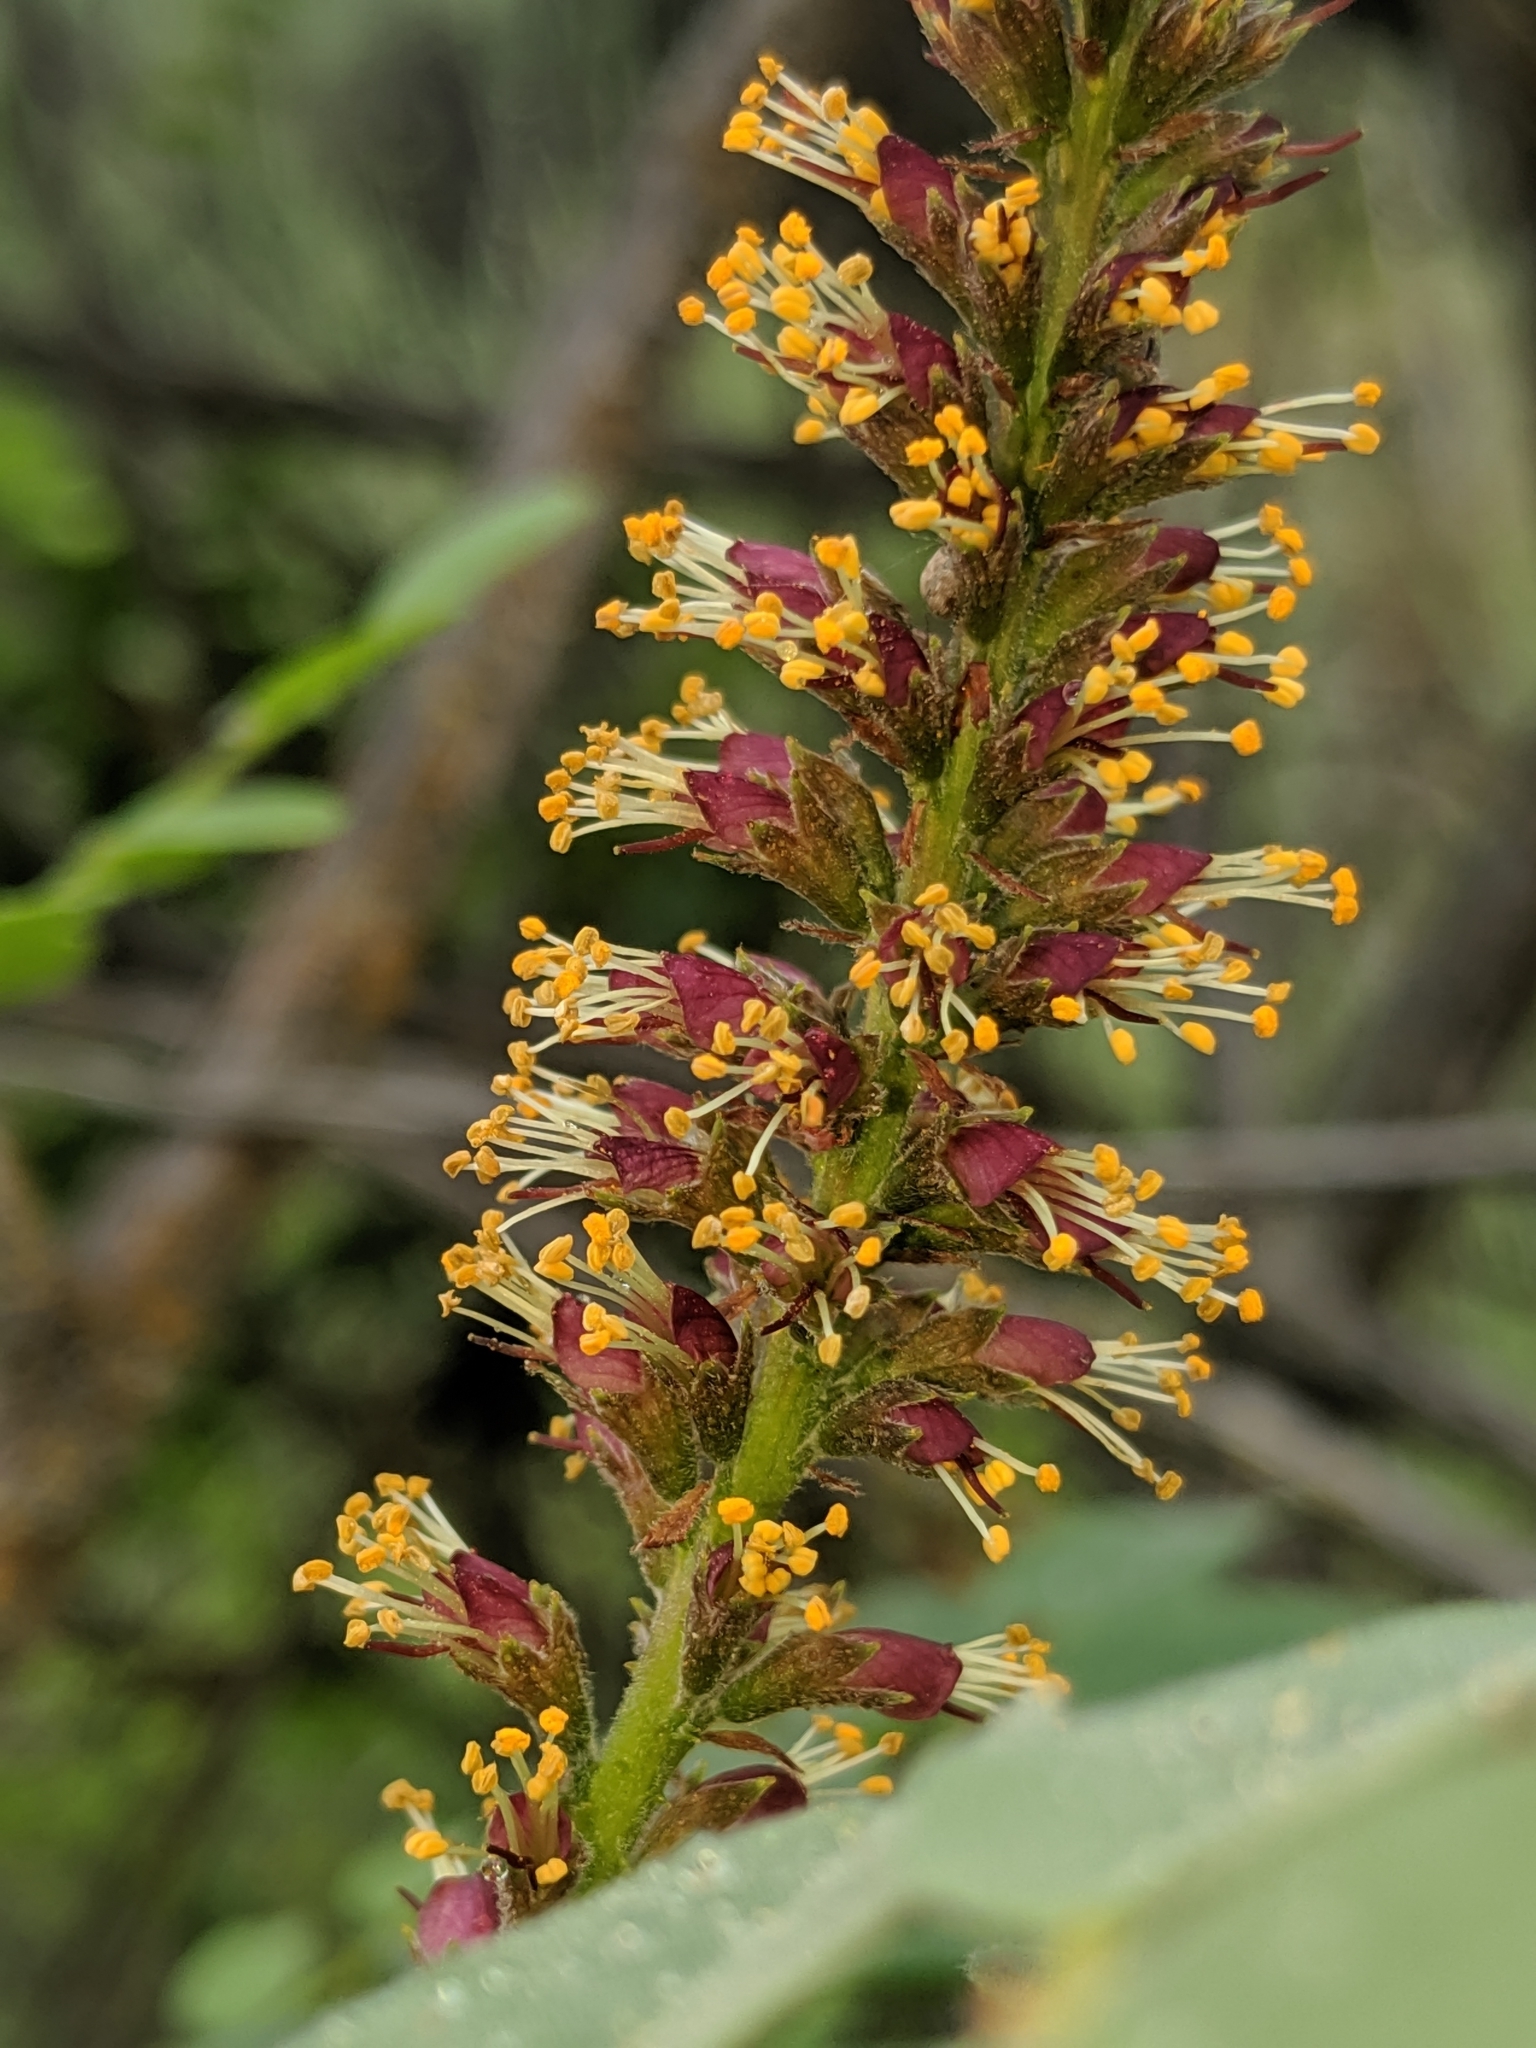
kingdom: Plantae
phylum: Tracheophyta
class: Magnoliopsida
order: Fabales
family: Fabaceae
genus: Amorpha
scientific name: Amorpha californica
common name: California indigobush
